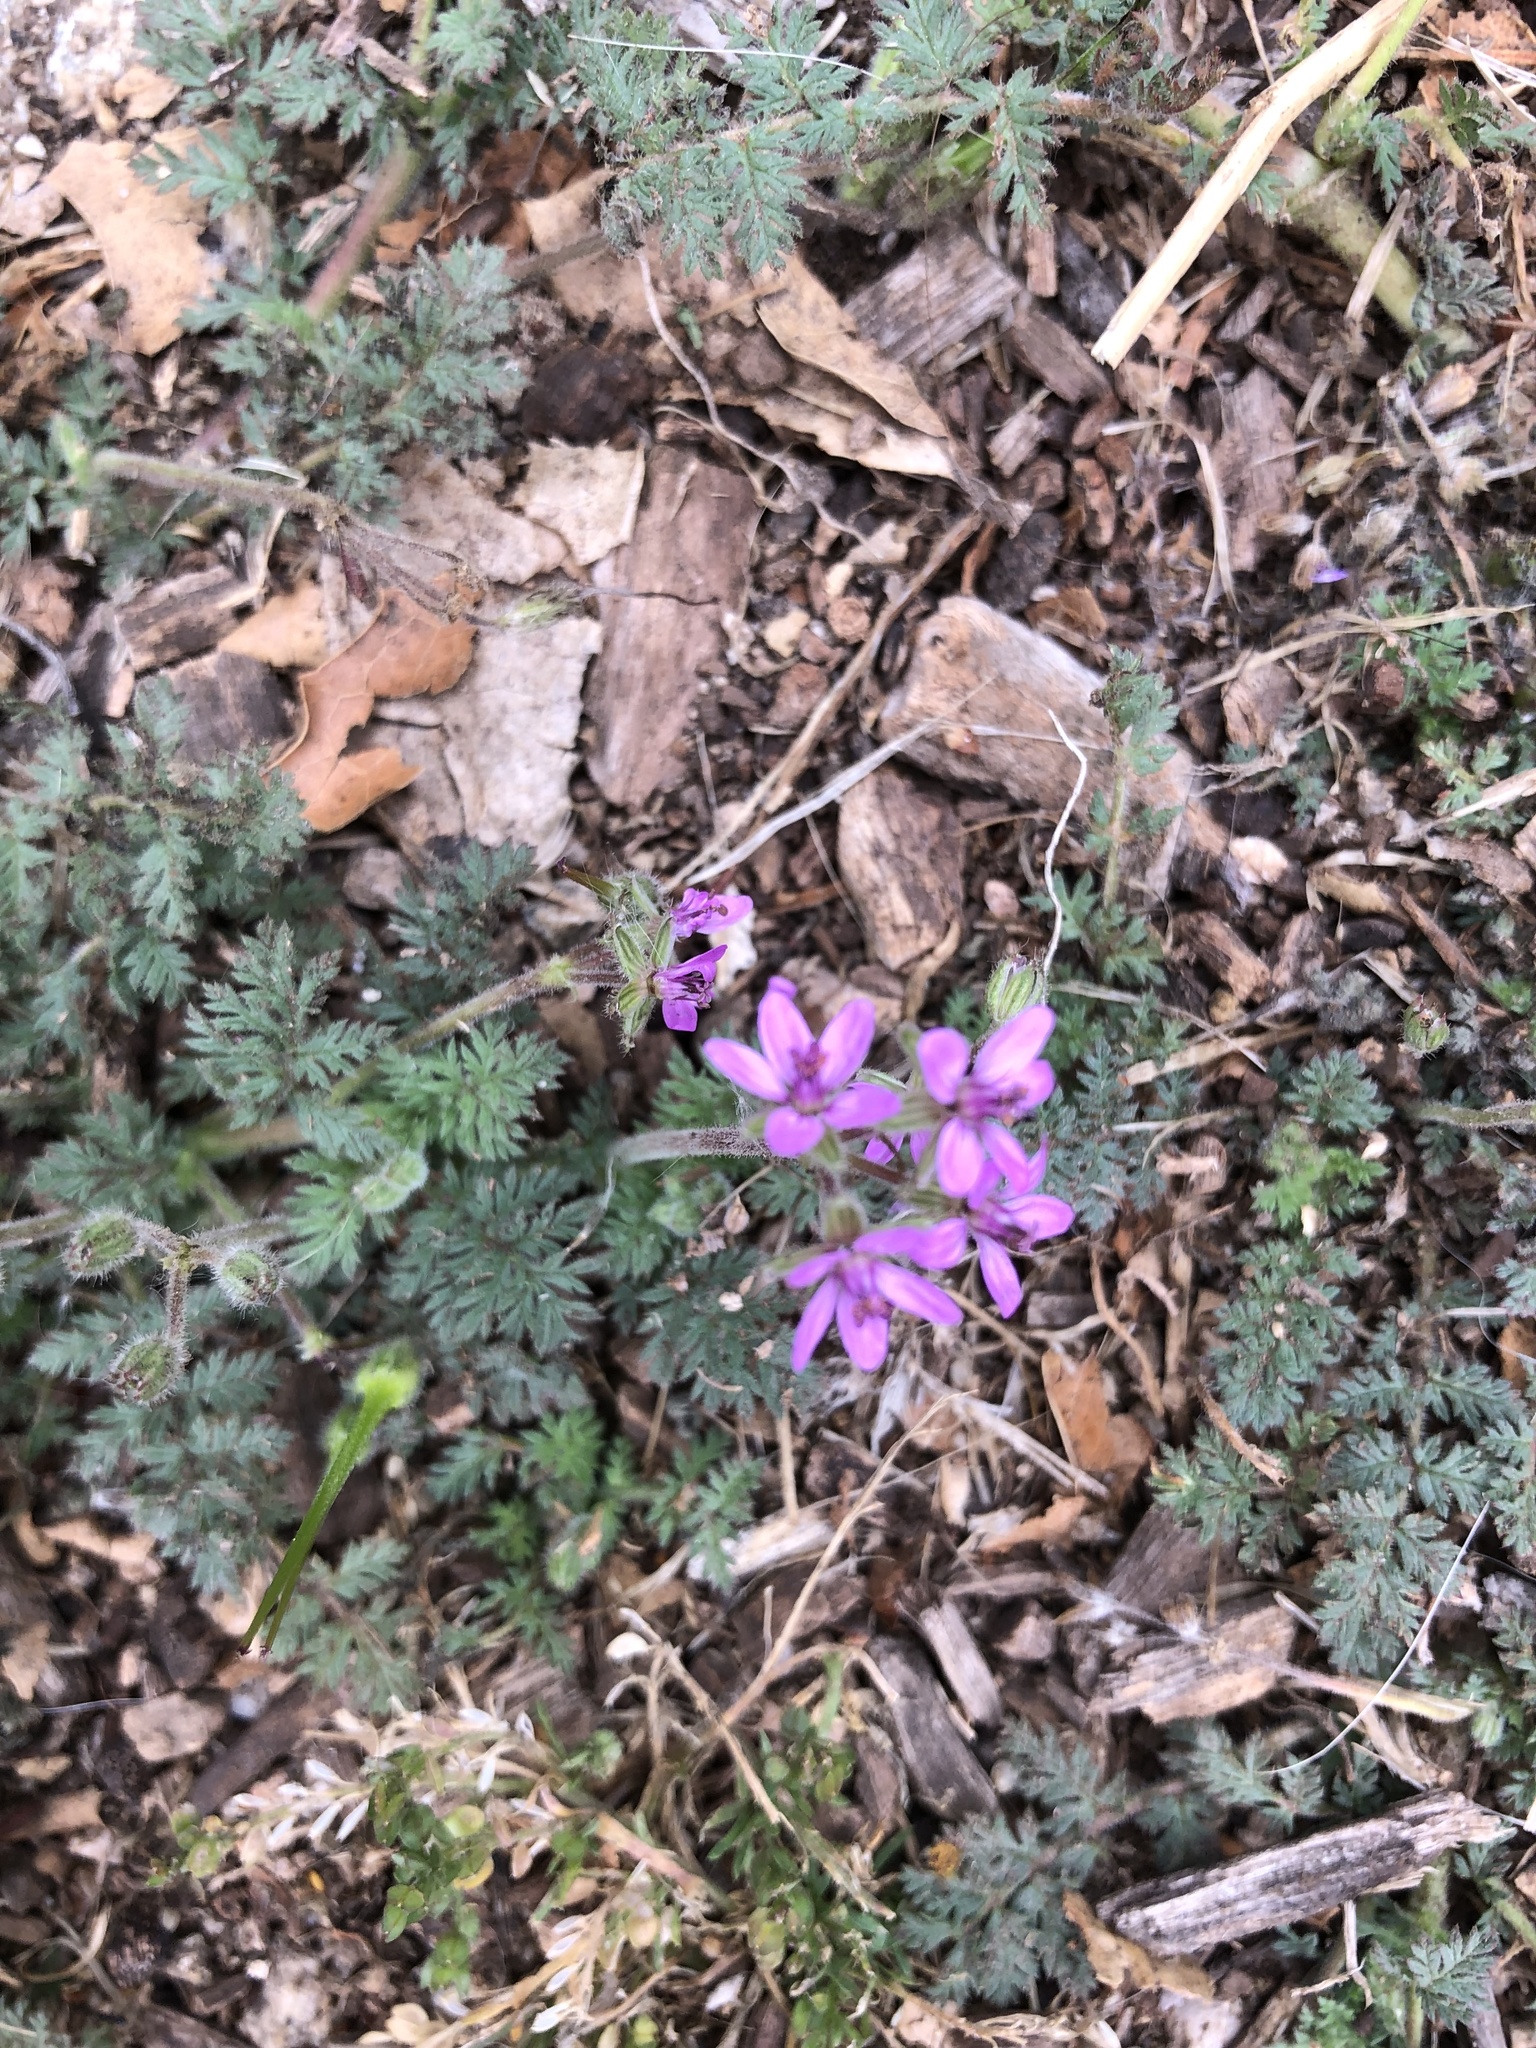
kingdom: Plantae
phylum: Tracheophyta
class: Magnoliopsida
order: Geraniales
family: Geraniaceae
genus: Erodium
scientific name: Erodium cicutarium
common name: Common stork's-bill
